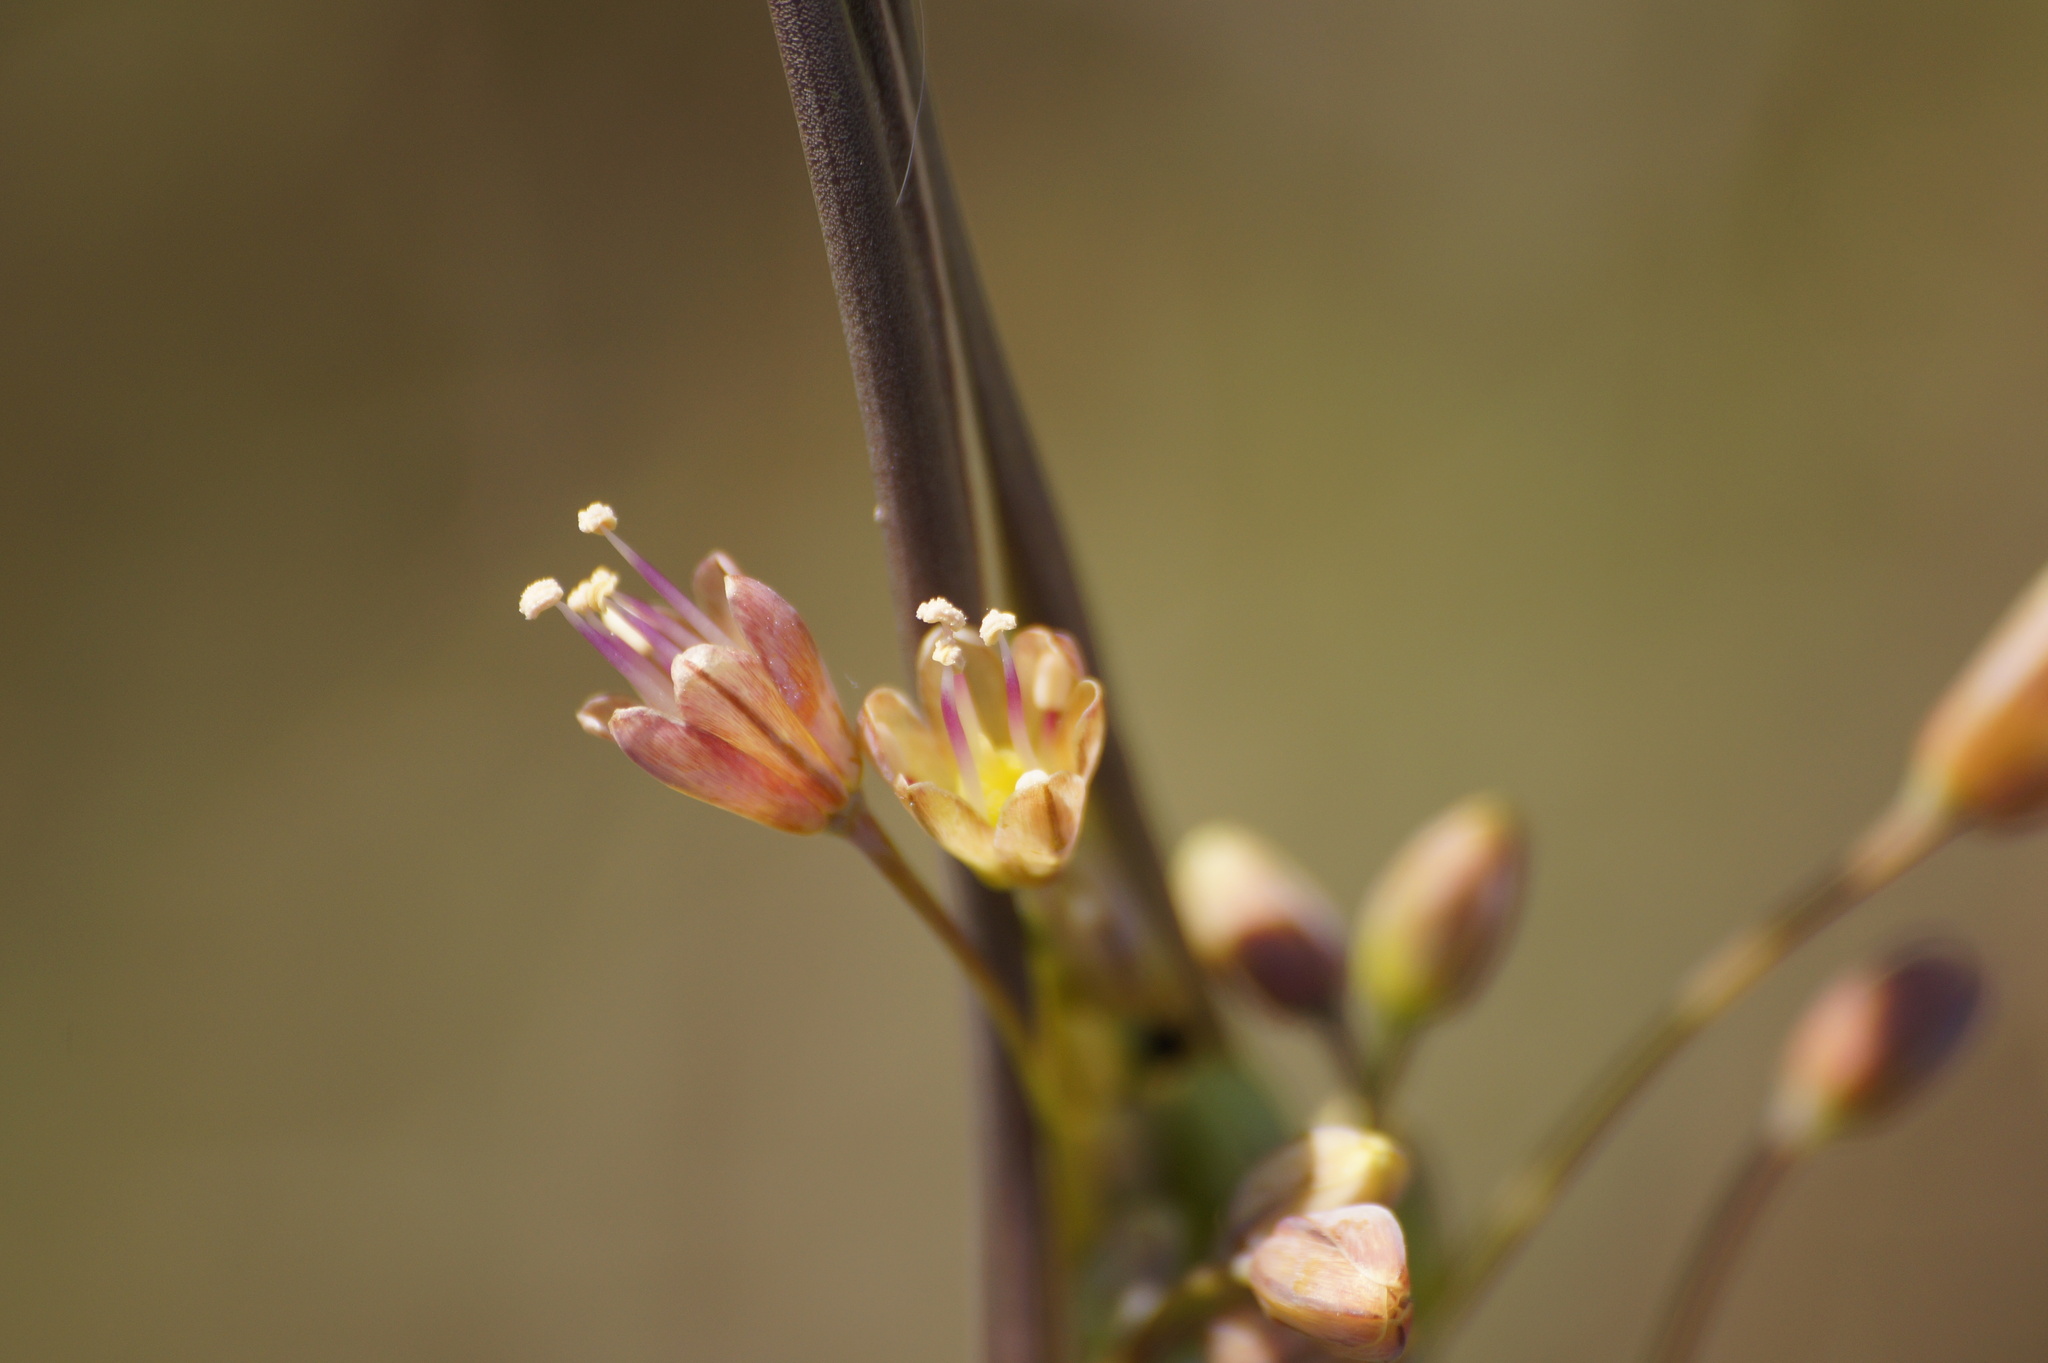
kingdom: Plantae
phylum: Tracheophyta
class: Liliopsida
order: Asparagales
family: Amaryllidaceae
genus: Allium
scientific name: Allium flavum
